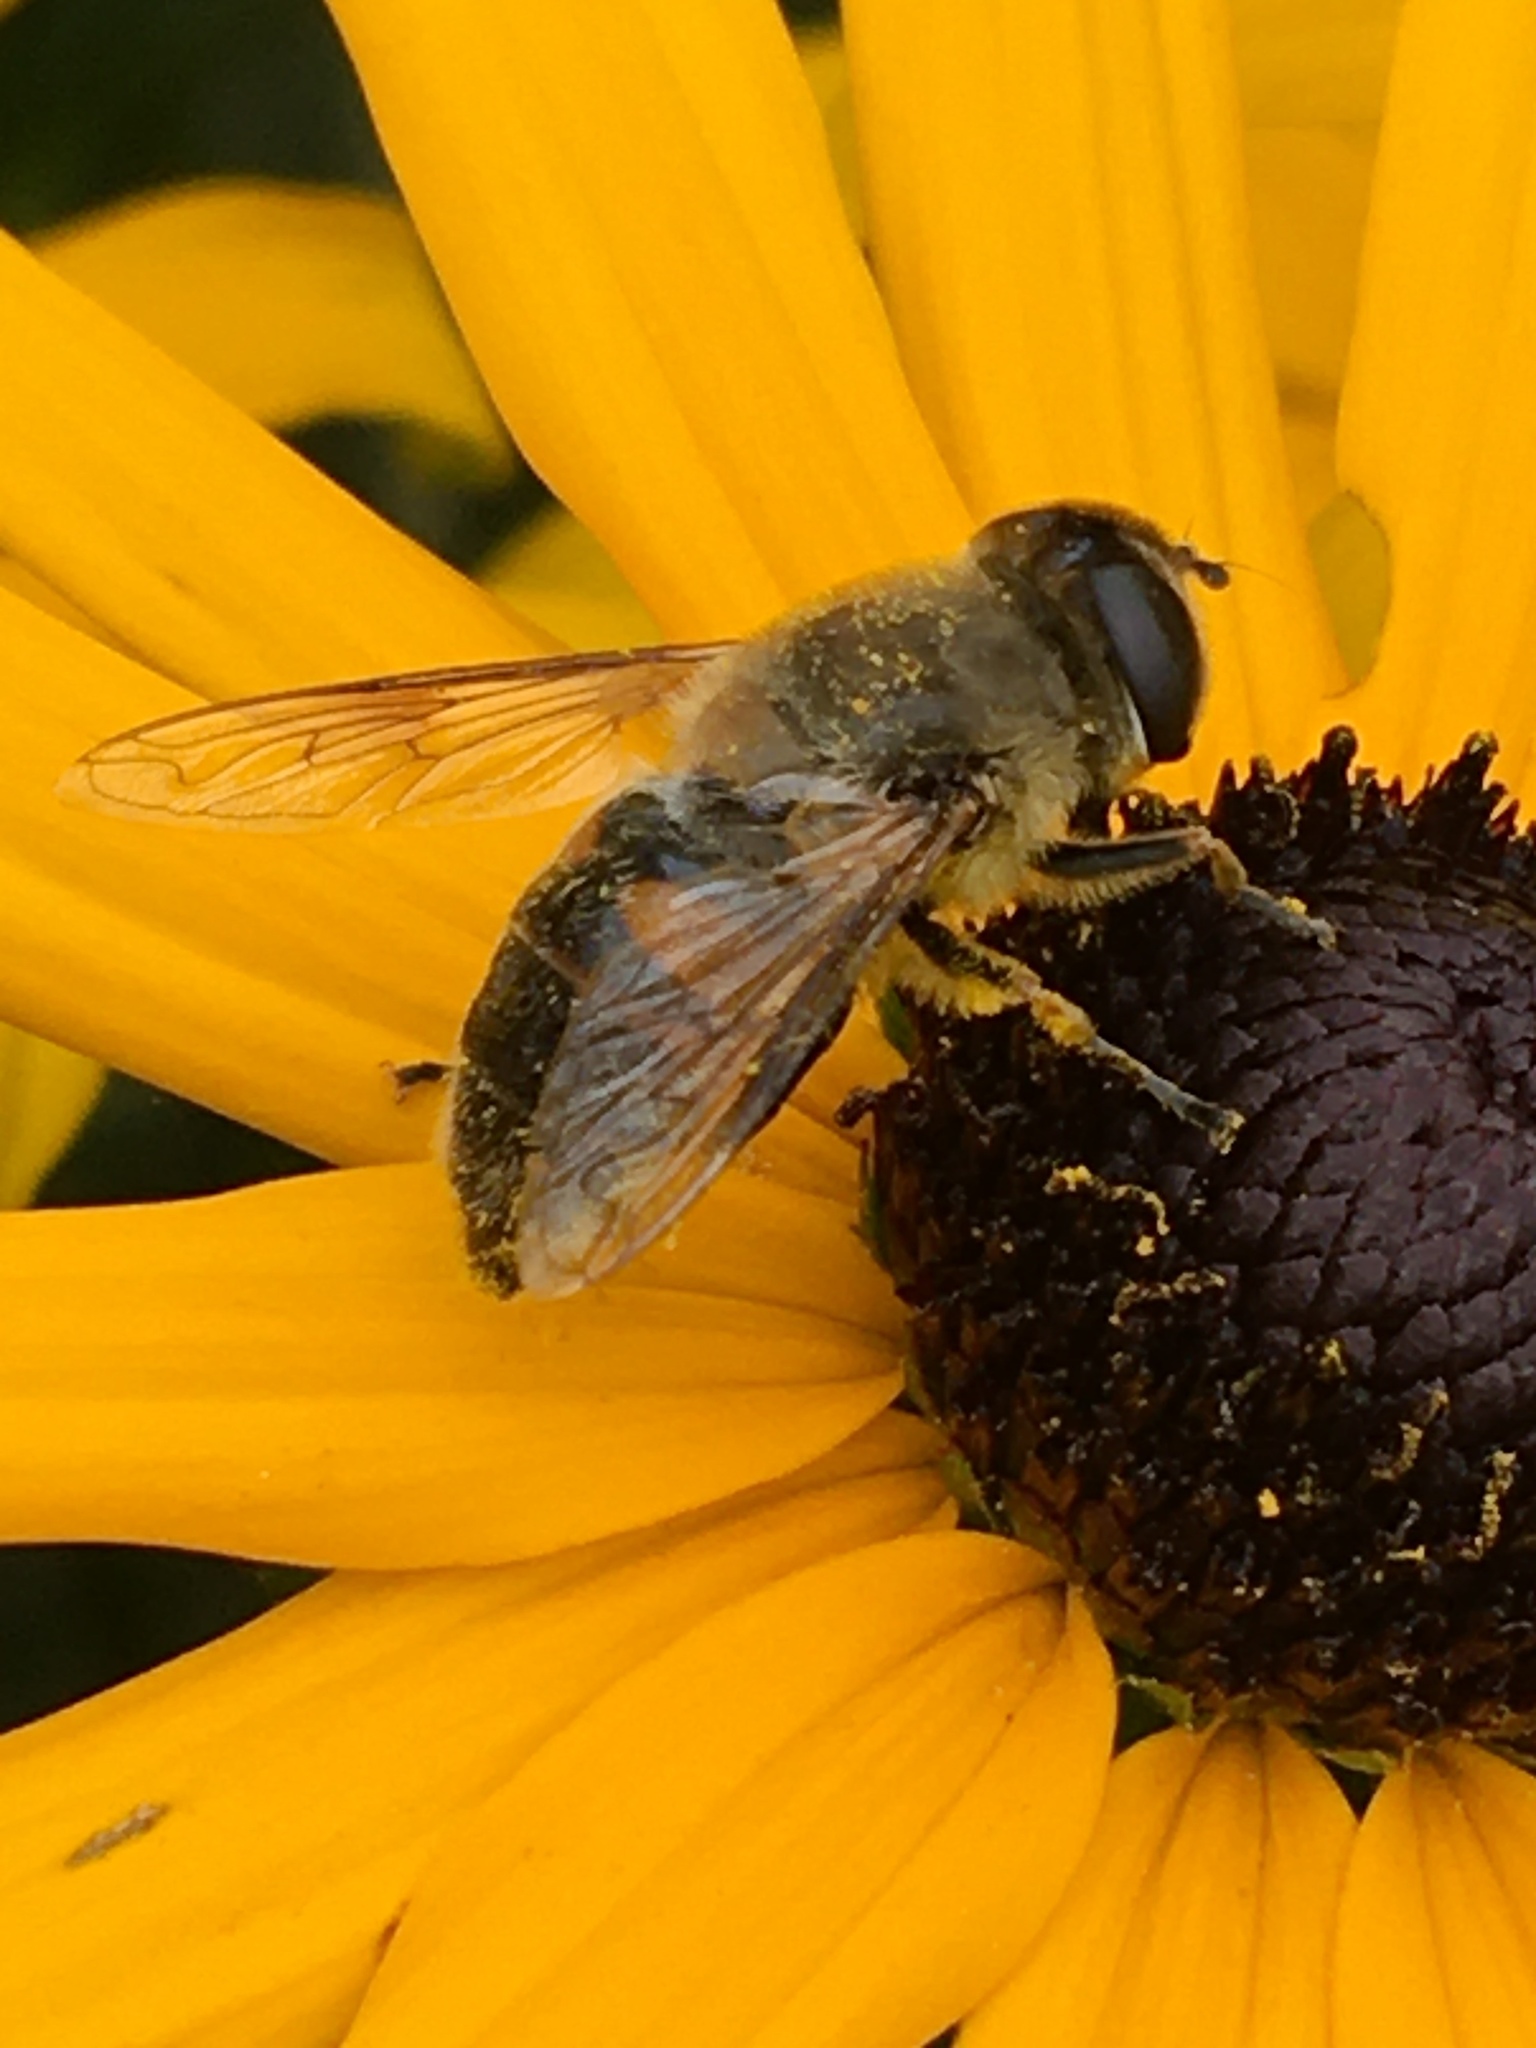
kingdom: Animalia
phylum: Arthropoda
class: Insecta
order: Diptera
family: Syrphidae
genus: Eristalis
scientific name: Eristalis tenax
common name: Drone fly
